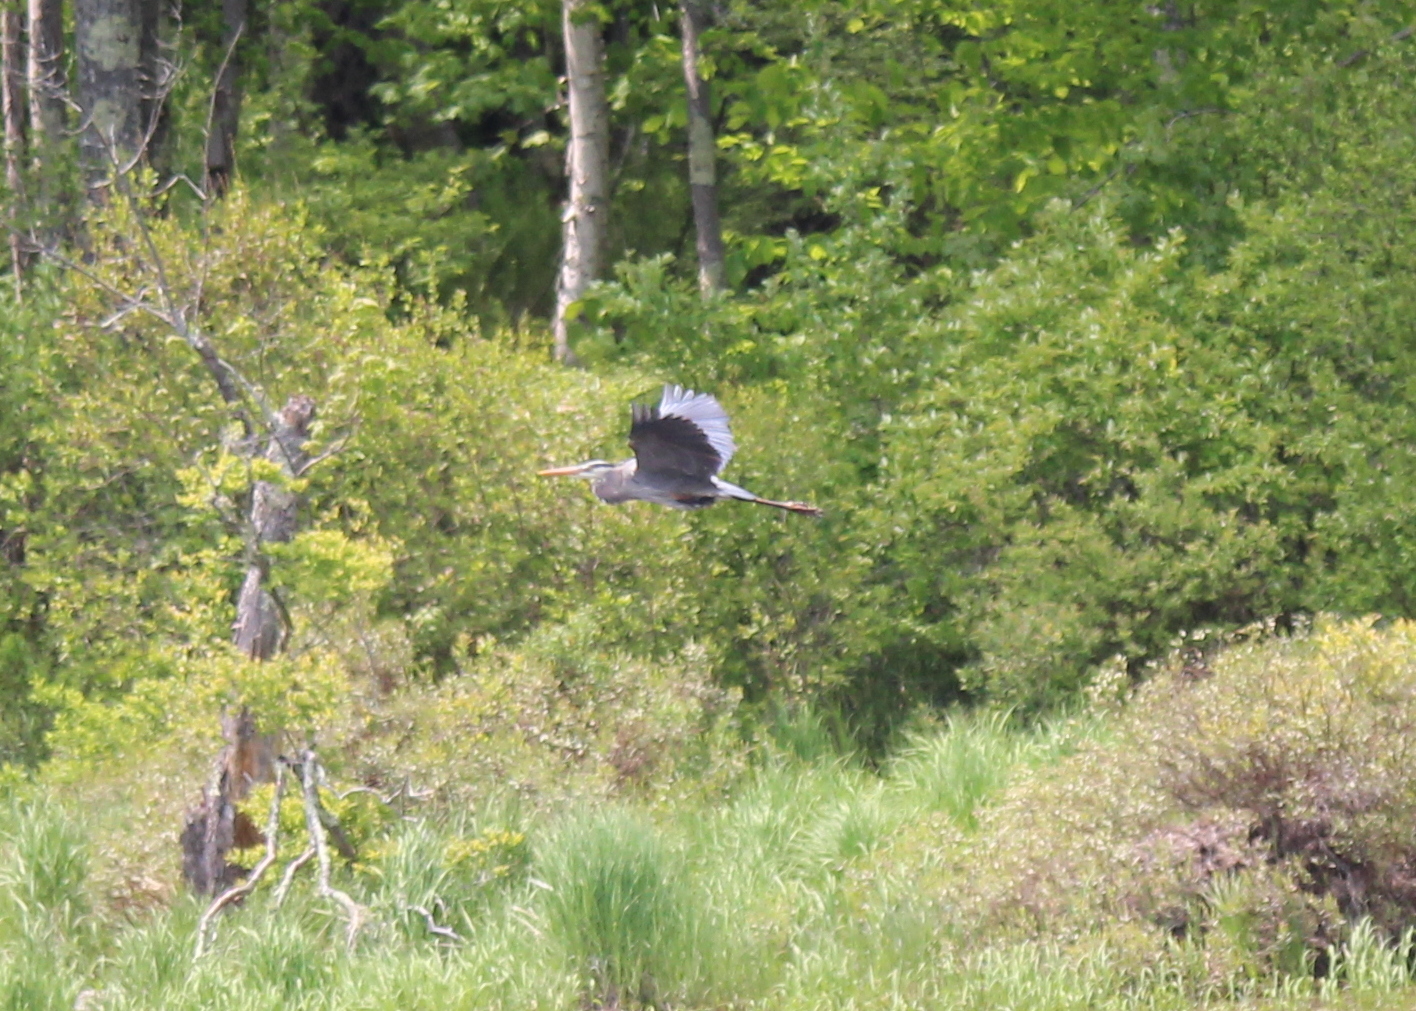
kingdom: Animalia
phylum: Chordata
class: Aves
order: Pelecaniformes
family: Ardeidae
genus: Ardea
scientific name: Ardea herodias
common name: Great blue heron
